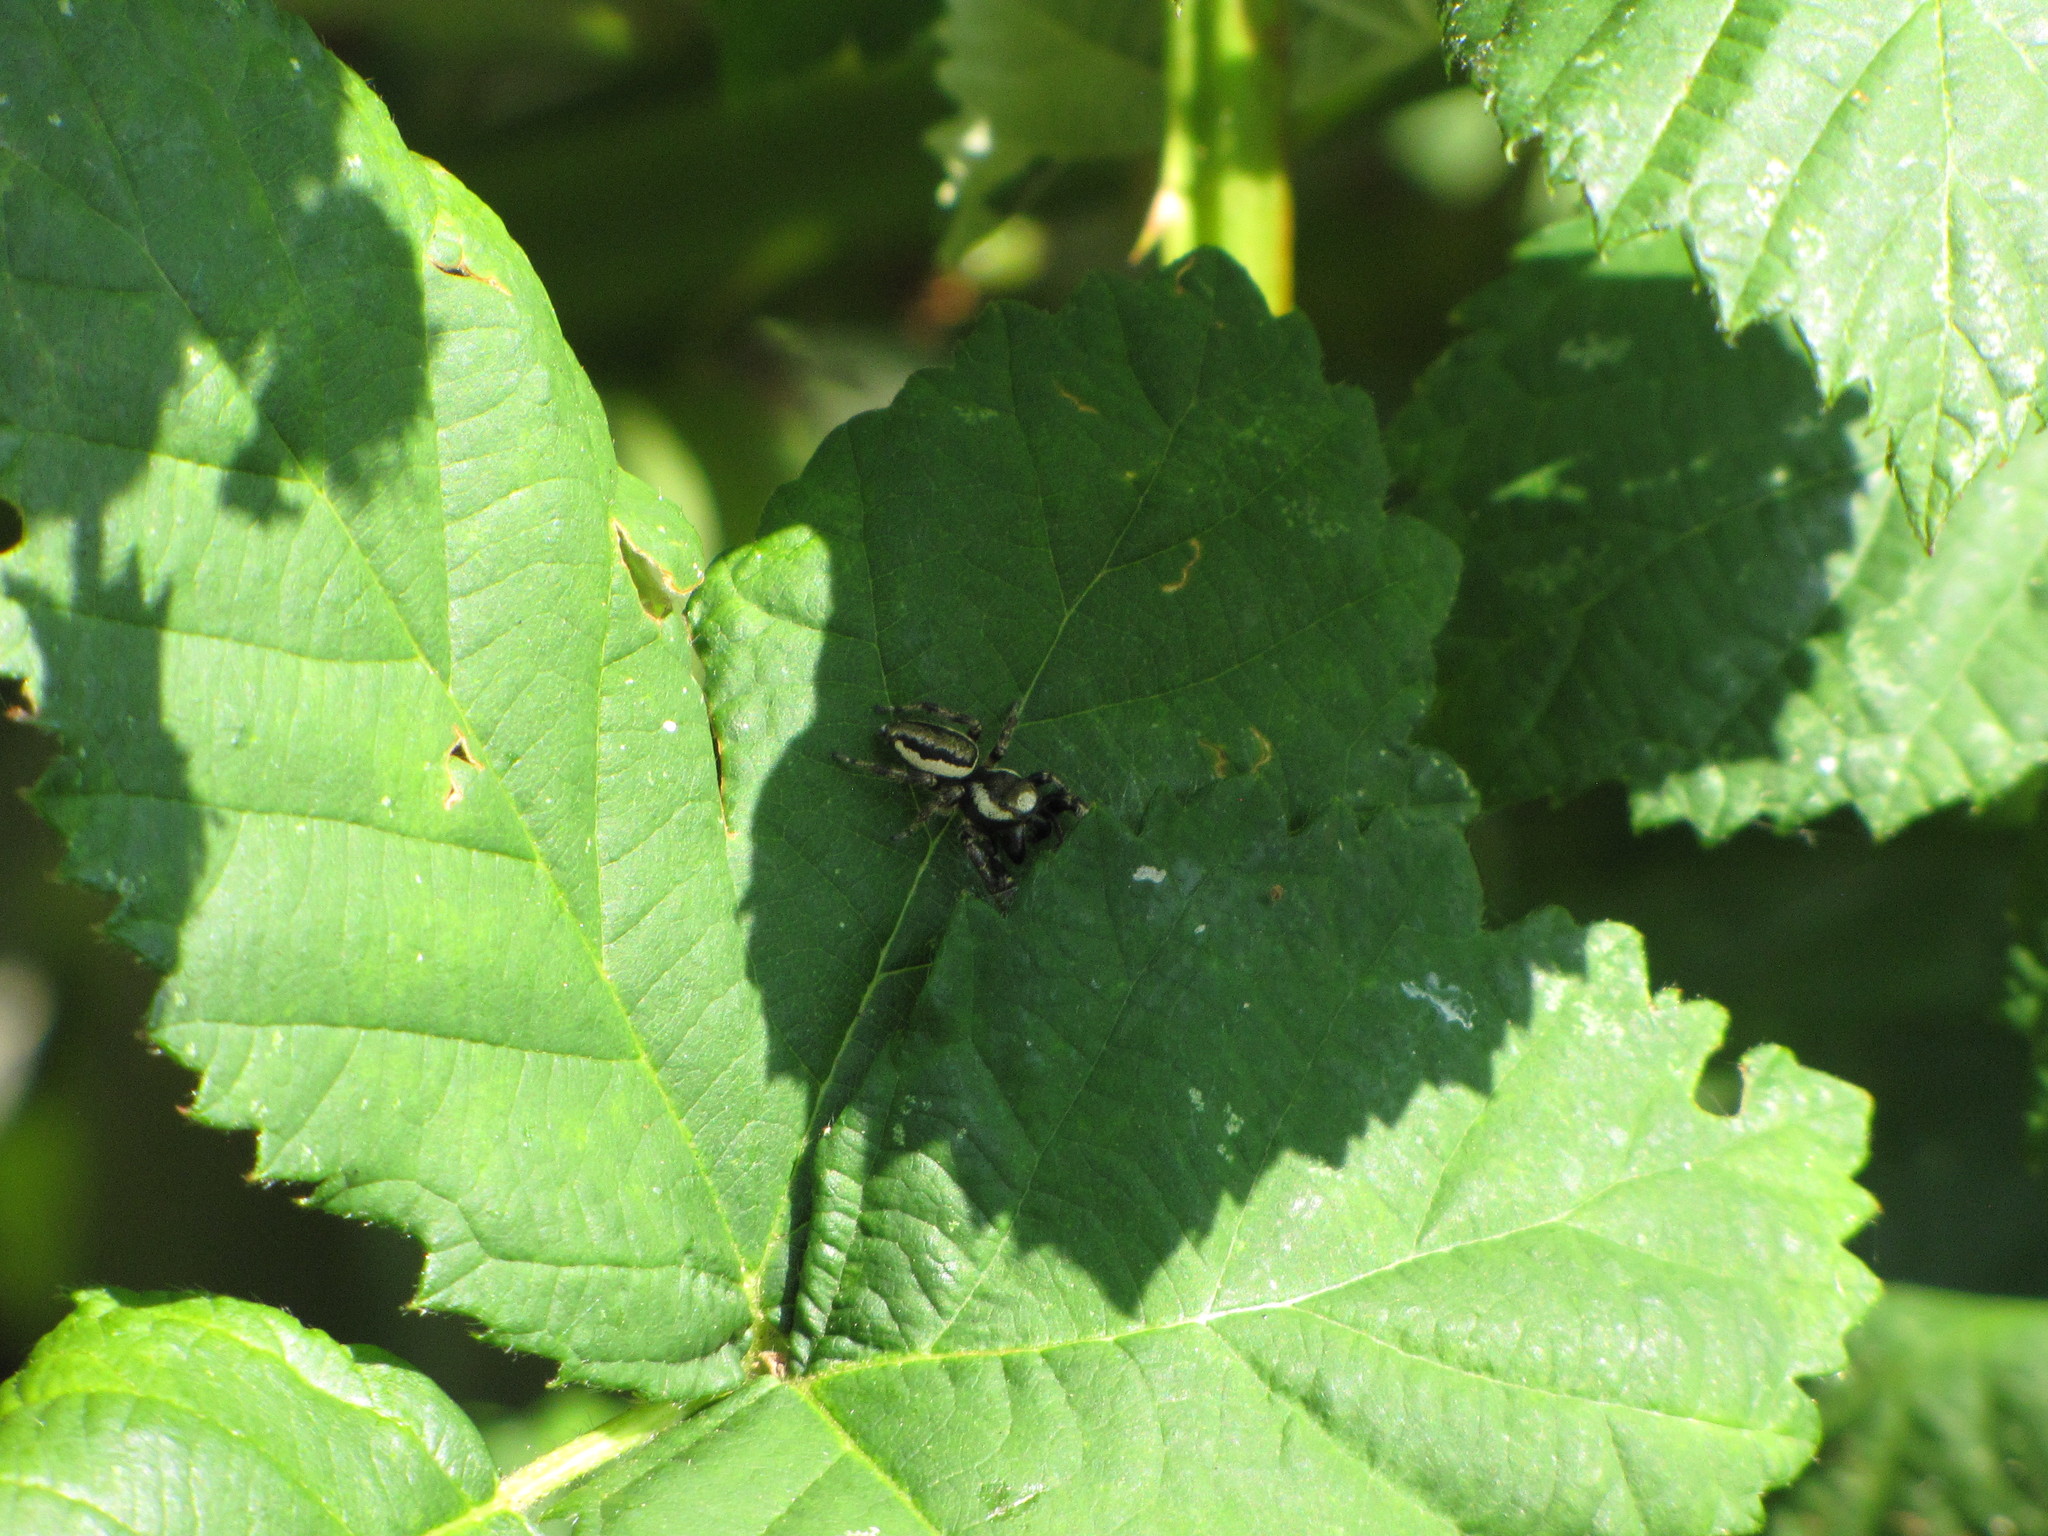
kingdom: Animalia
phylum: Arthropoda
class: Arachnida
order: Araneae
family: Salticidae
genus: Eris
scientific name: Eris militaris
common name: Bronze jumper
